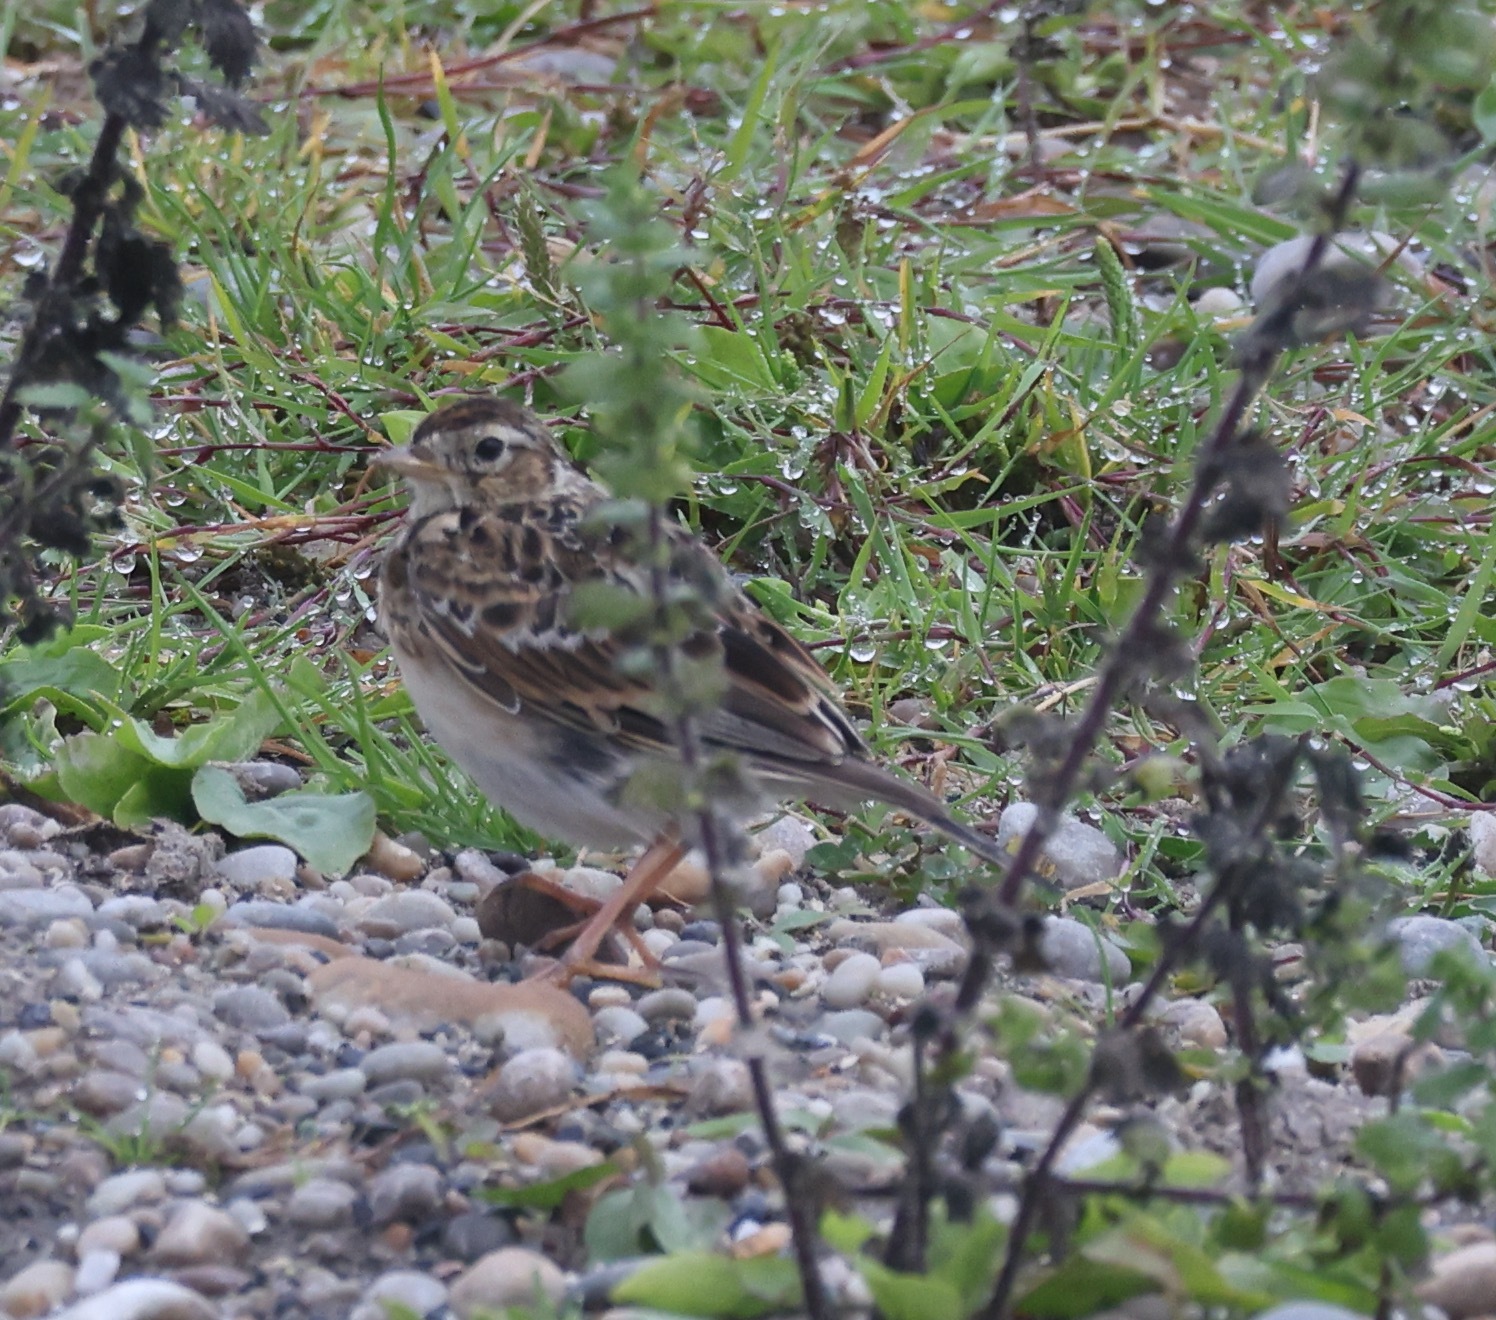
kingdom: Animalia
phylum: Chordata
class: Aves
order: Passeriformes
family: Alaudidae
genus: Alauda
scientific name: Alauda arvensis
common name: Eurasian skylark
